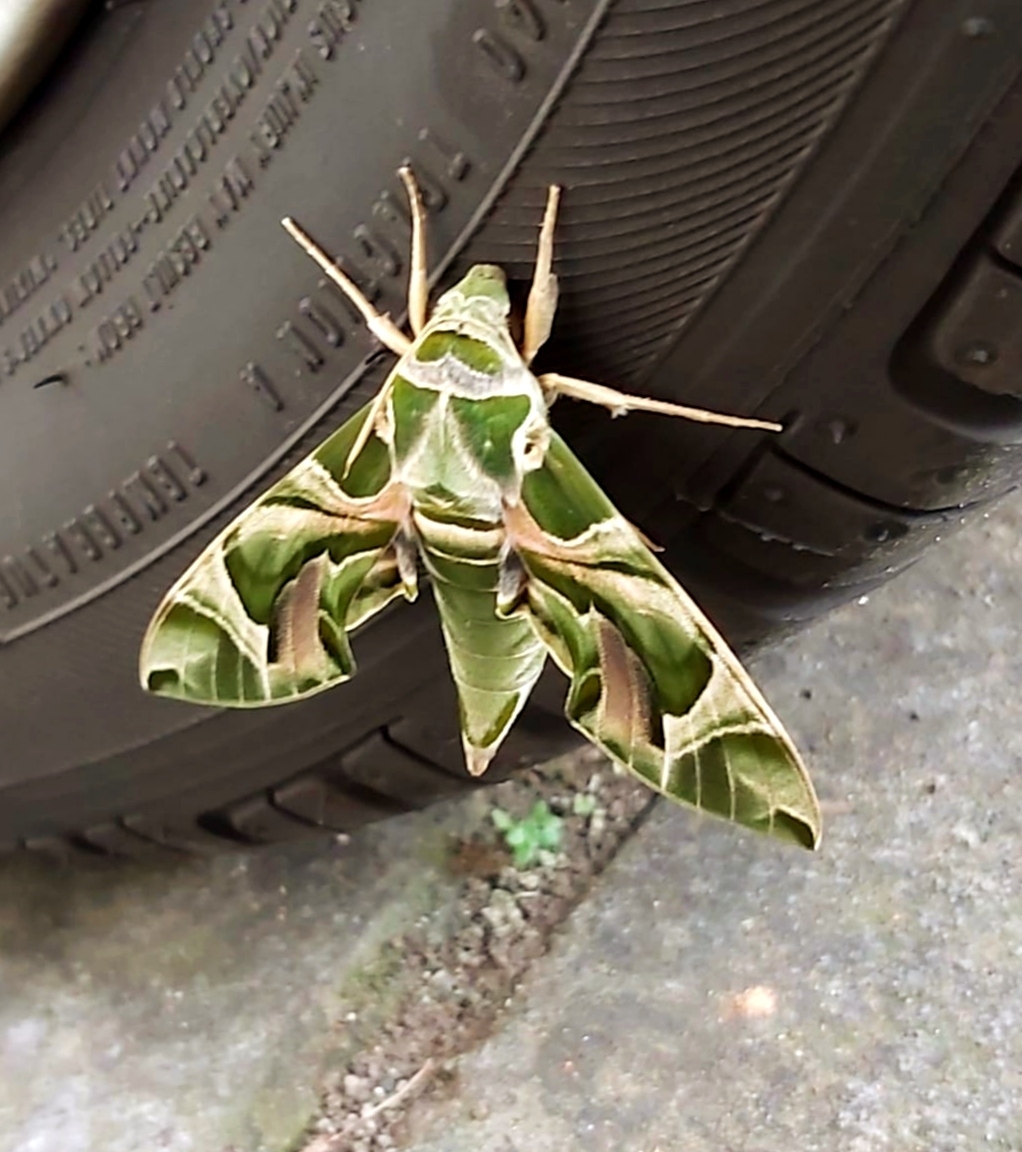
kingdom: Animalia
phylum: Arthropoda
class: Insecta
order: Lepidoptera
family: Sphingidae
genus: Daphnis
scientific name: Daphnis nerii
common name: Oleander hawk-moth
